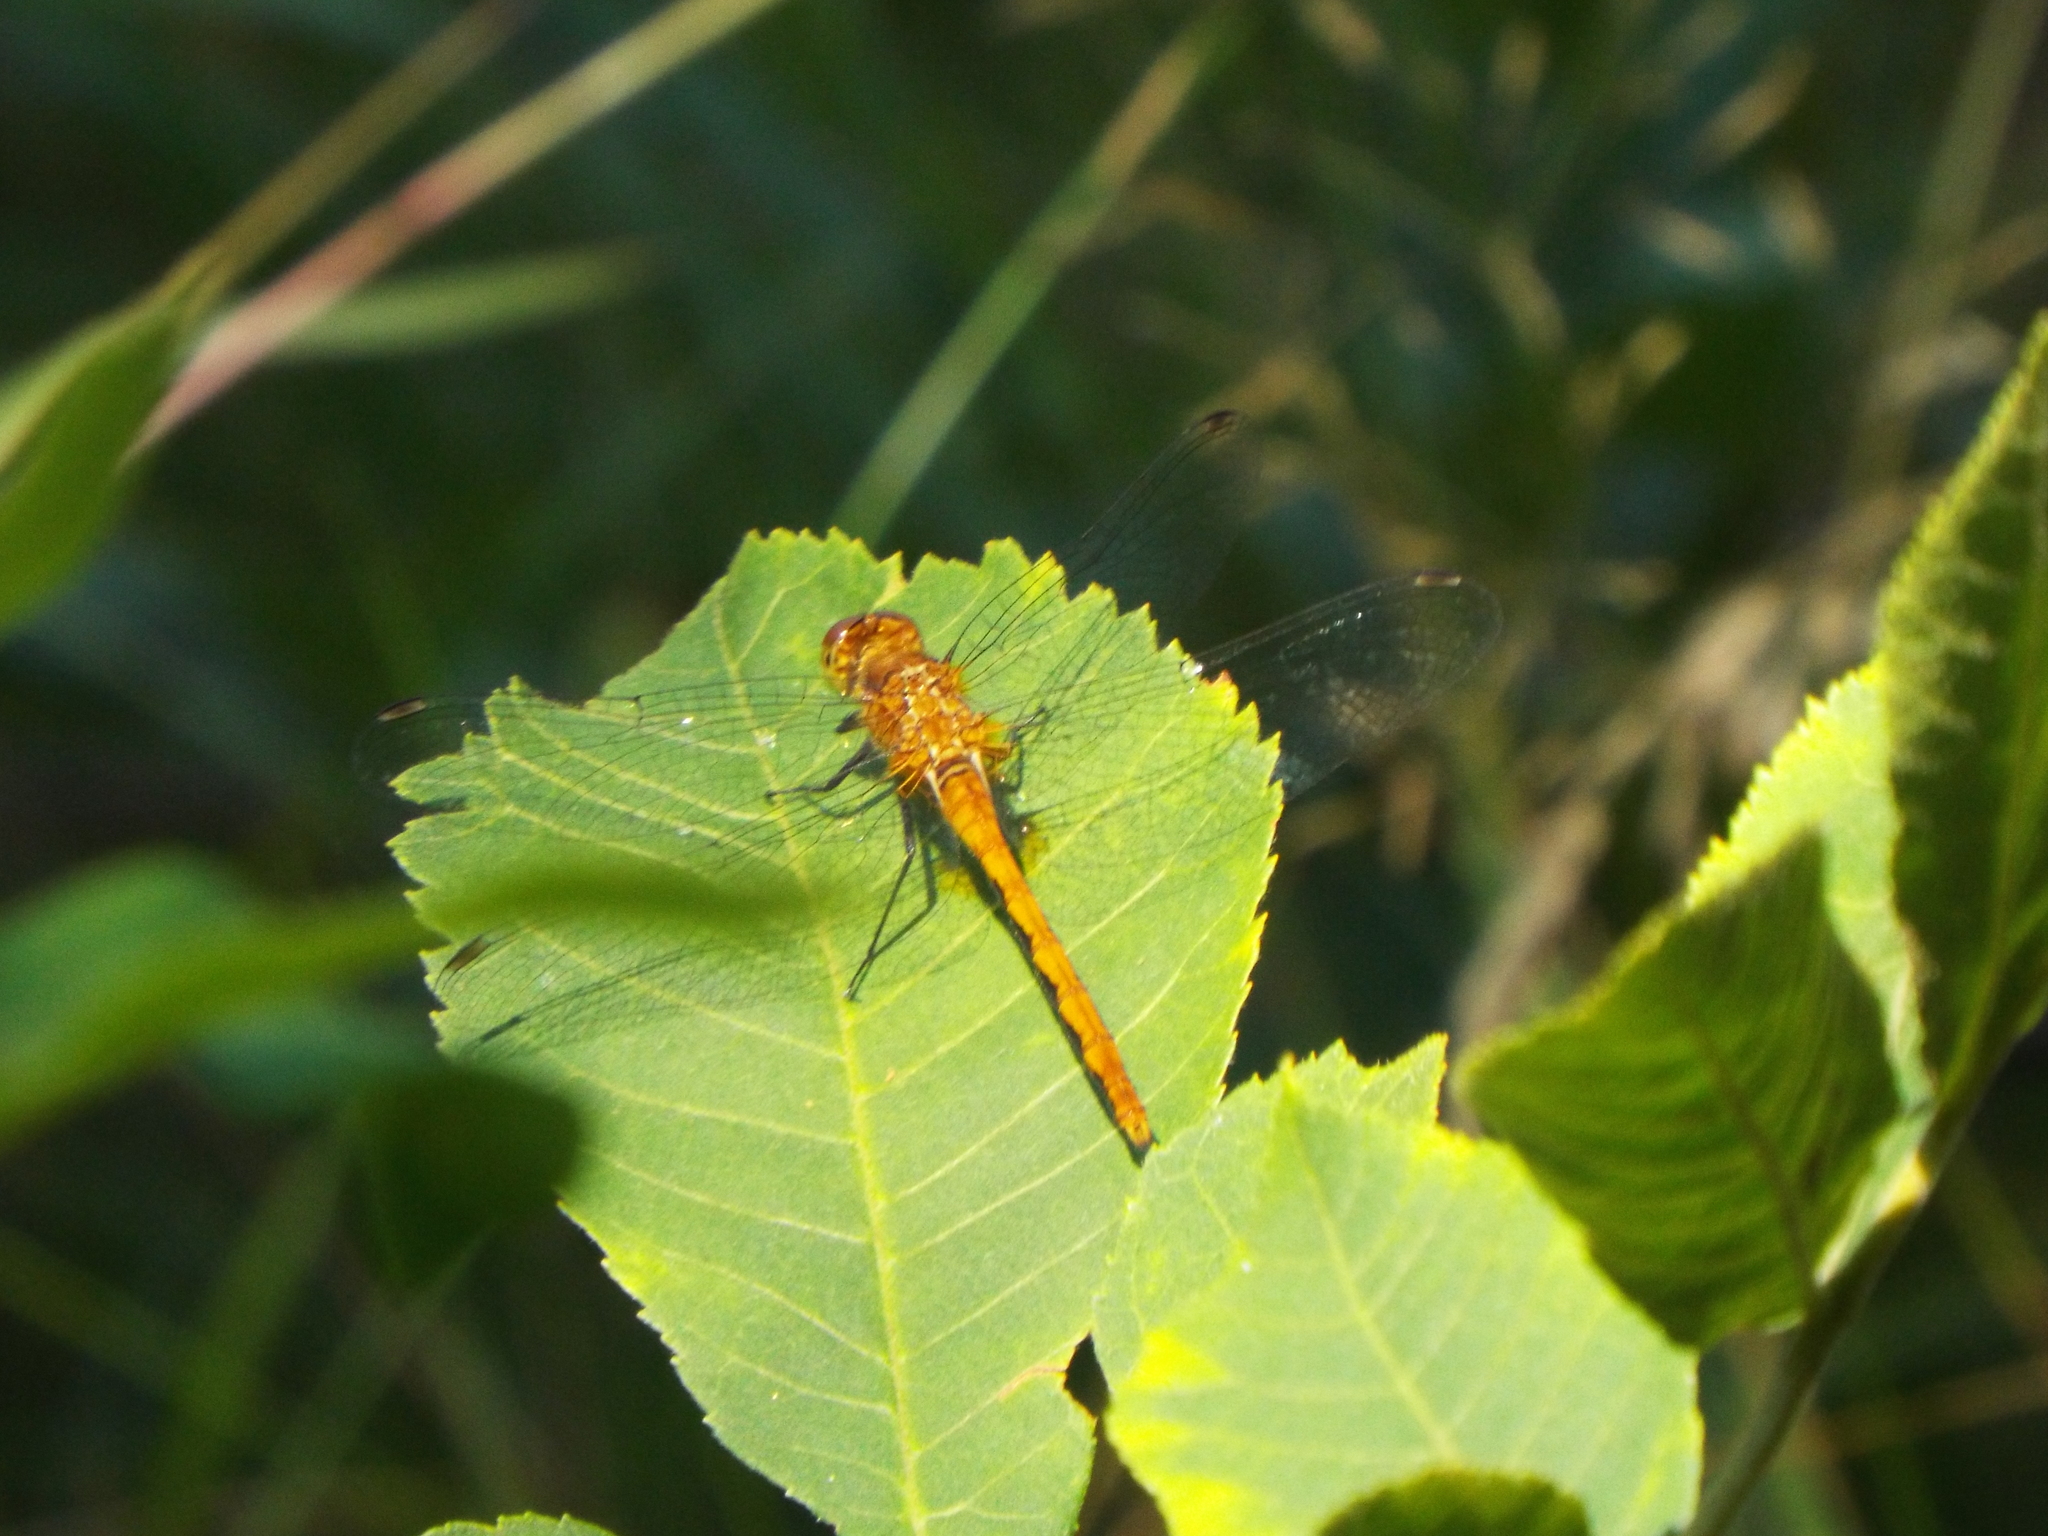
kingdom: Animalia
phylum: Arthropoda
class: Insecta
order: Odonata
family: Libellulidae
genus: Sympetrum
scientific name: Sympetrum
